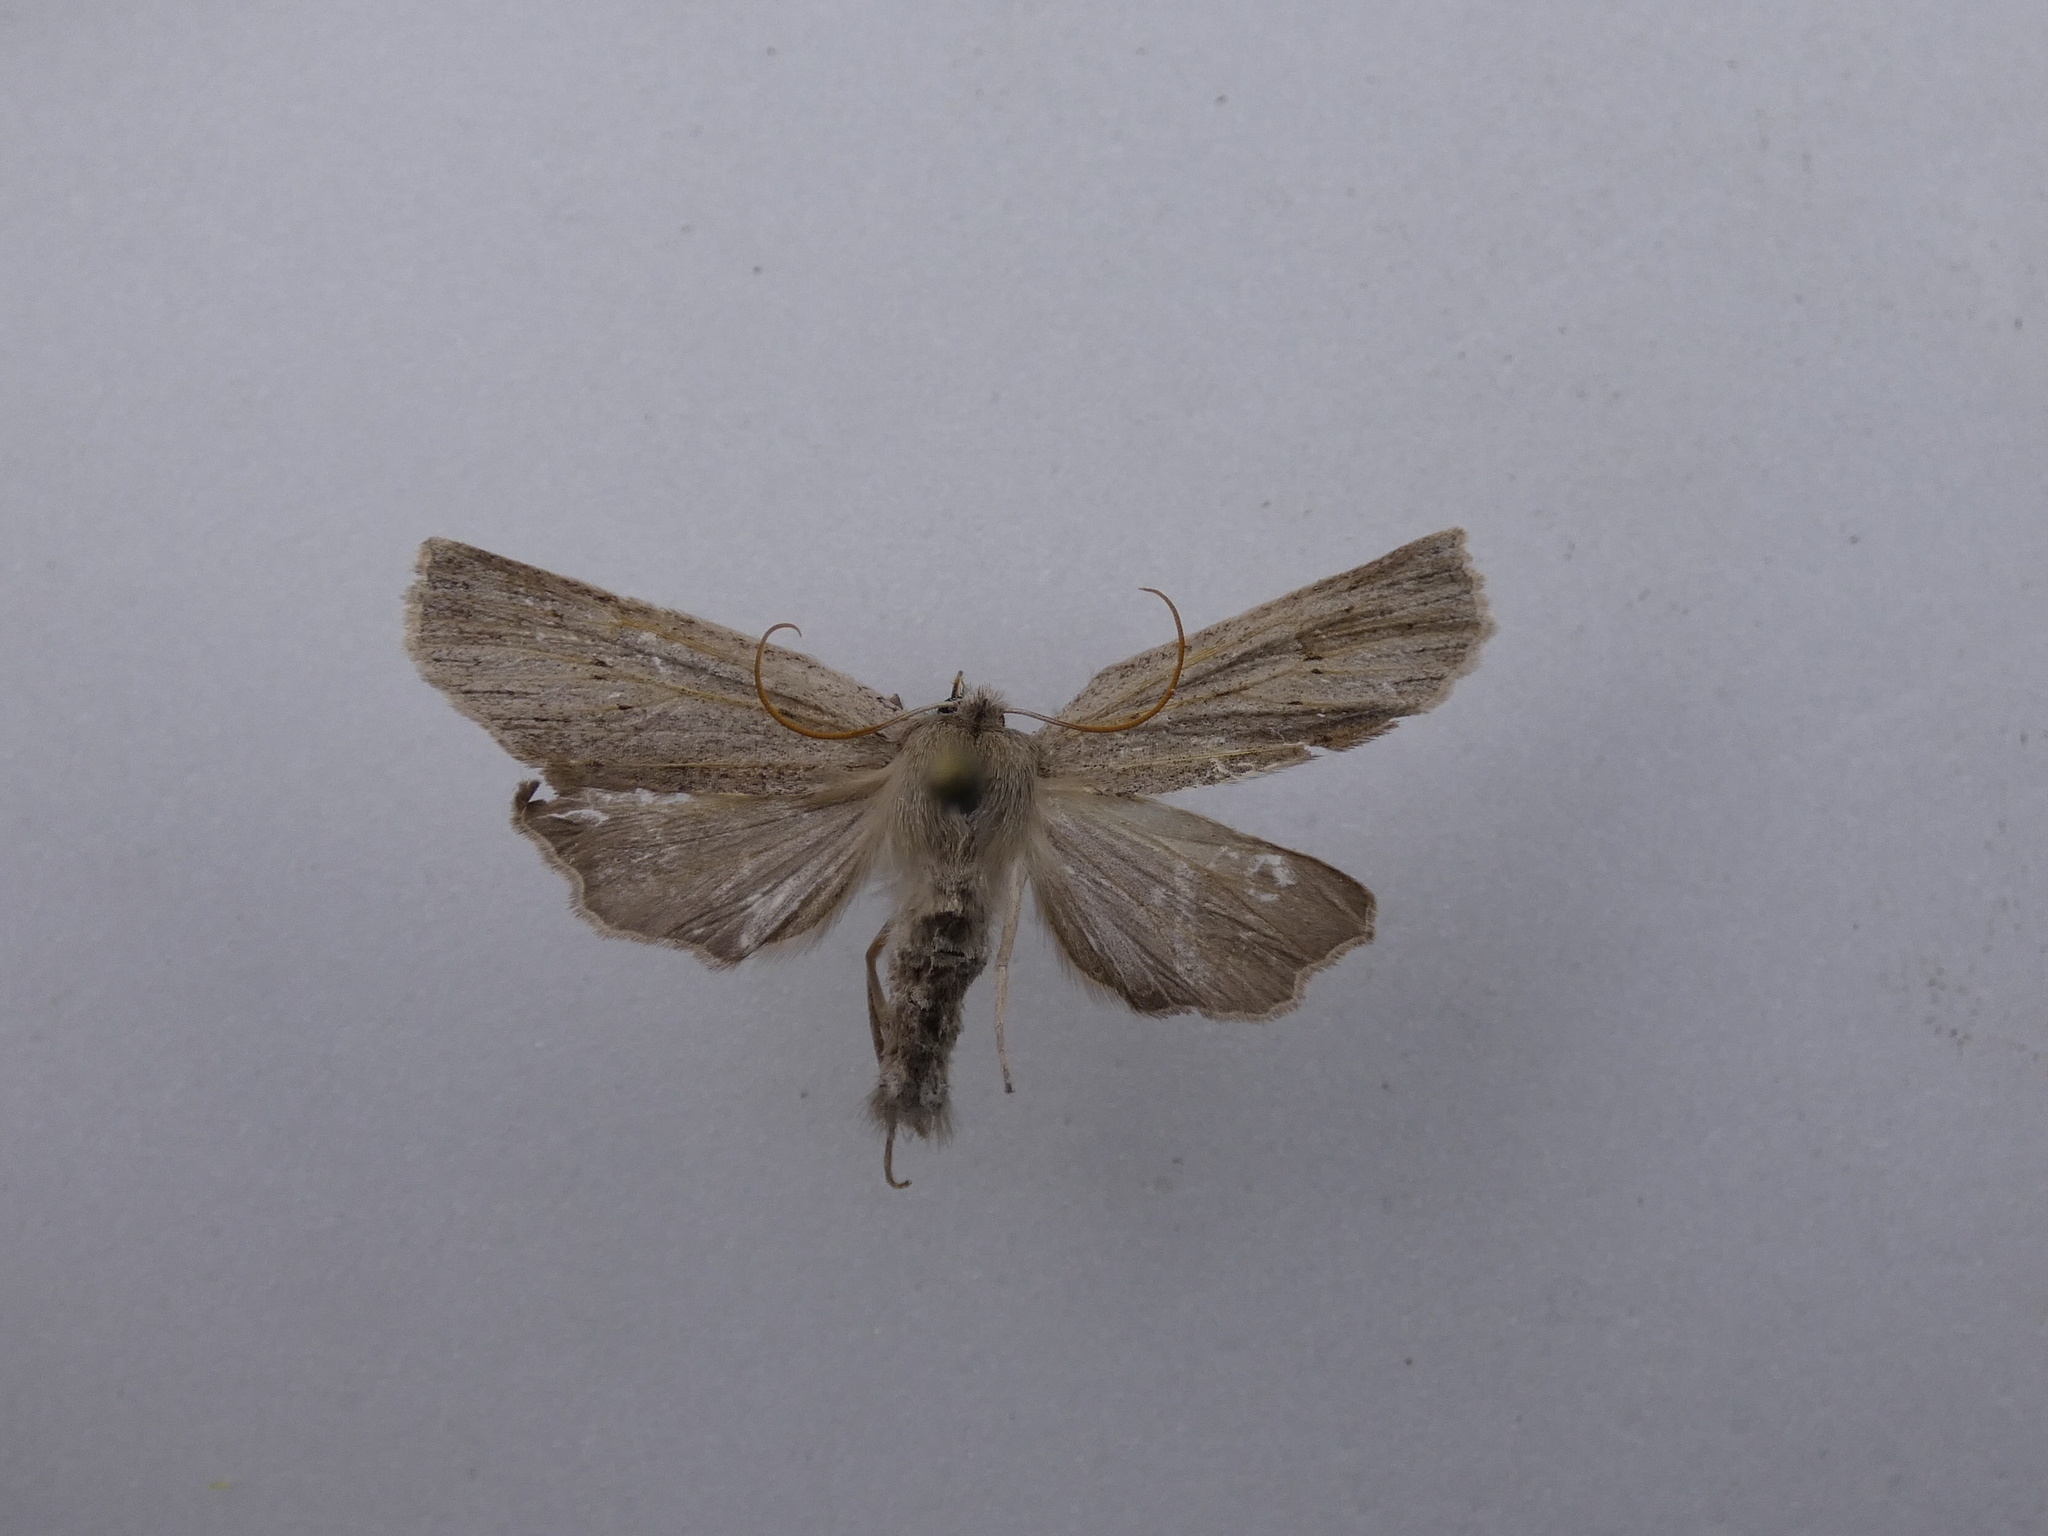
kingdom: Animalia
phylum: Arthropoda
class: Insecta
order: Lepidoptera
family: Geometridae
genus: Declana
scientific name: Declana leptomera
